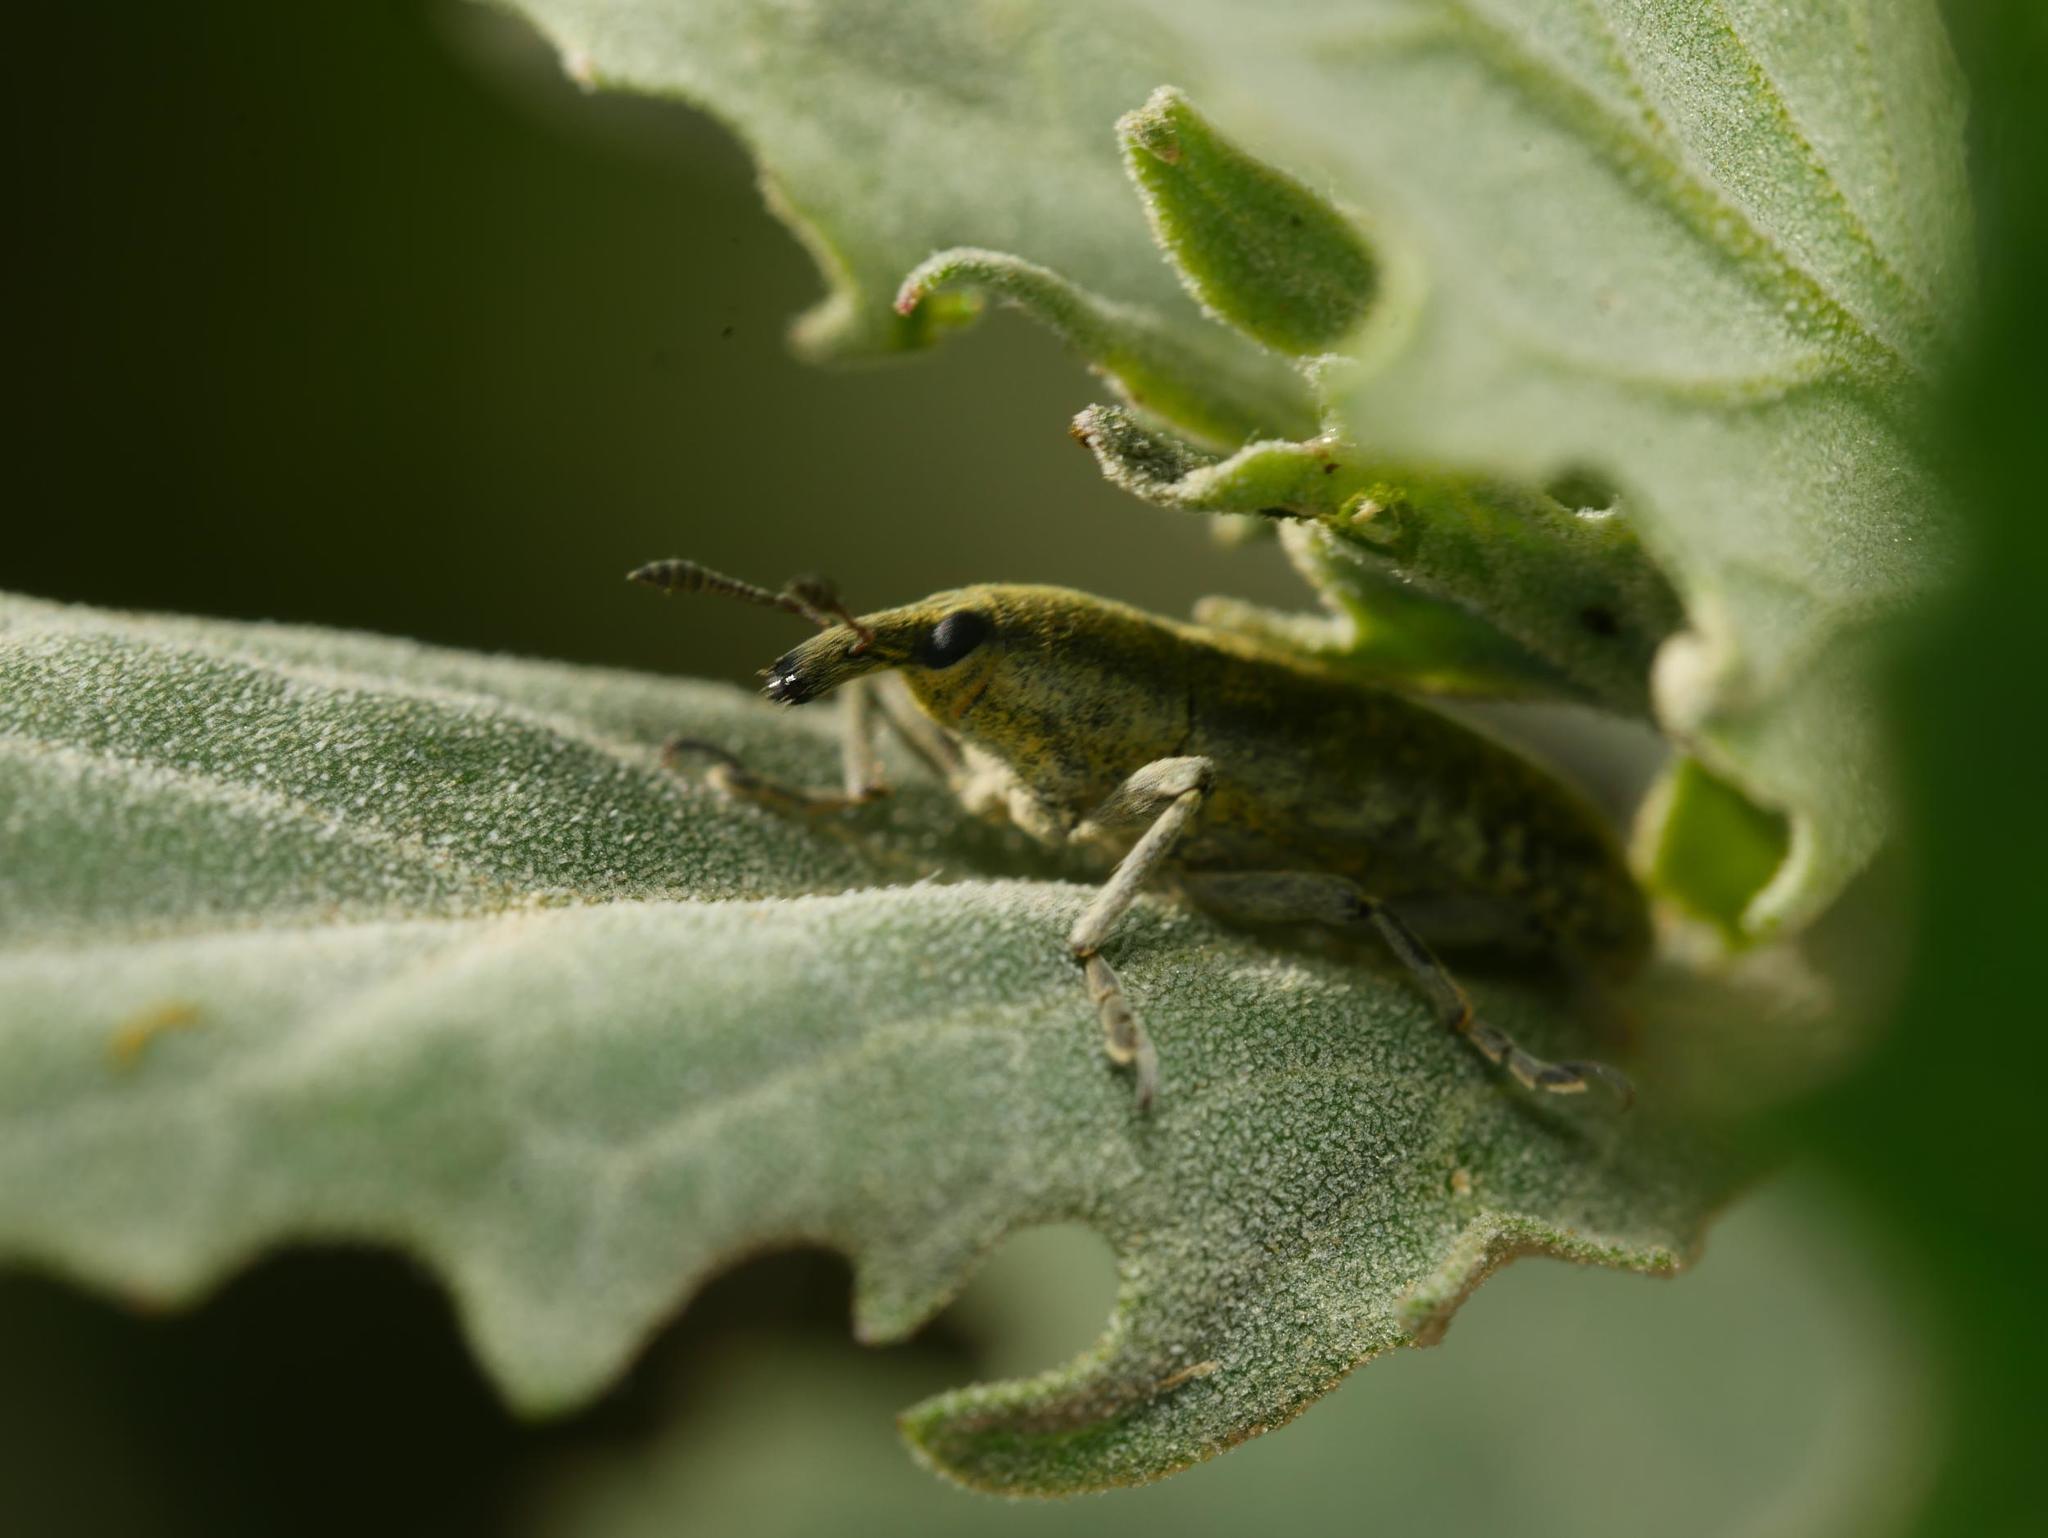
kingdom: Animalia
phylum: Arthropoda
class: Insecta
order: Coleoptera
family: Curculionidae
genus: Lixus
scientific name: Lixus rubicundus
